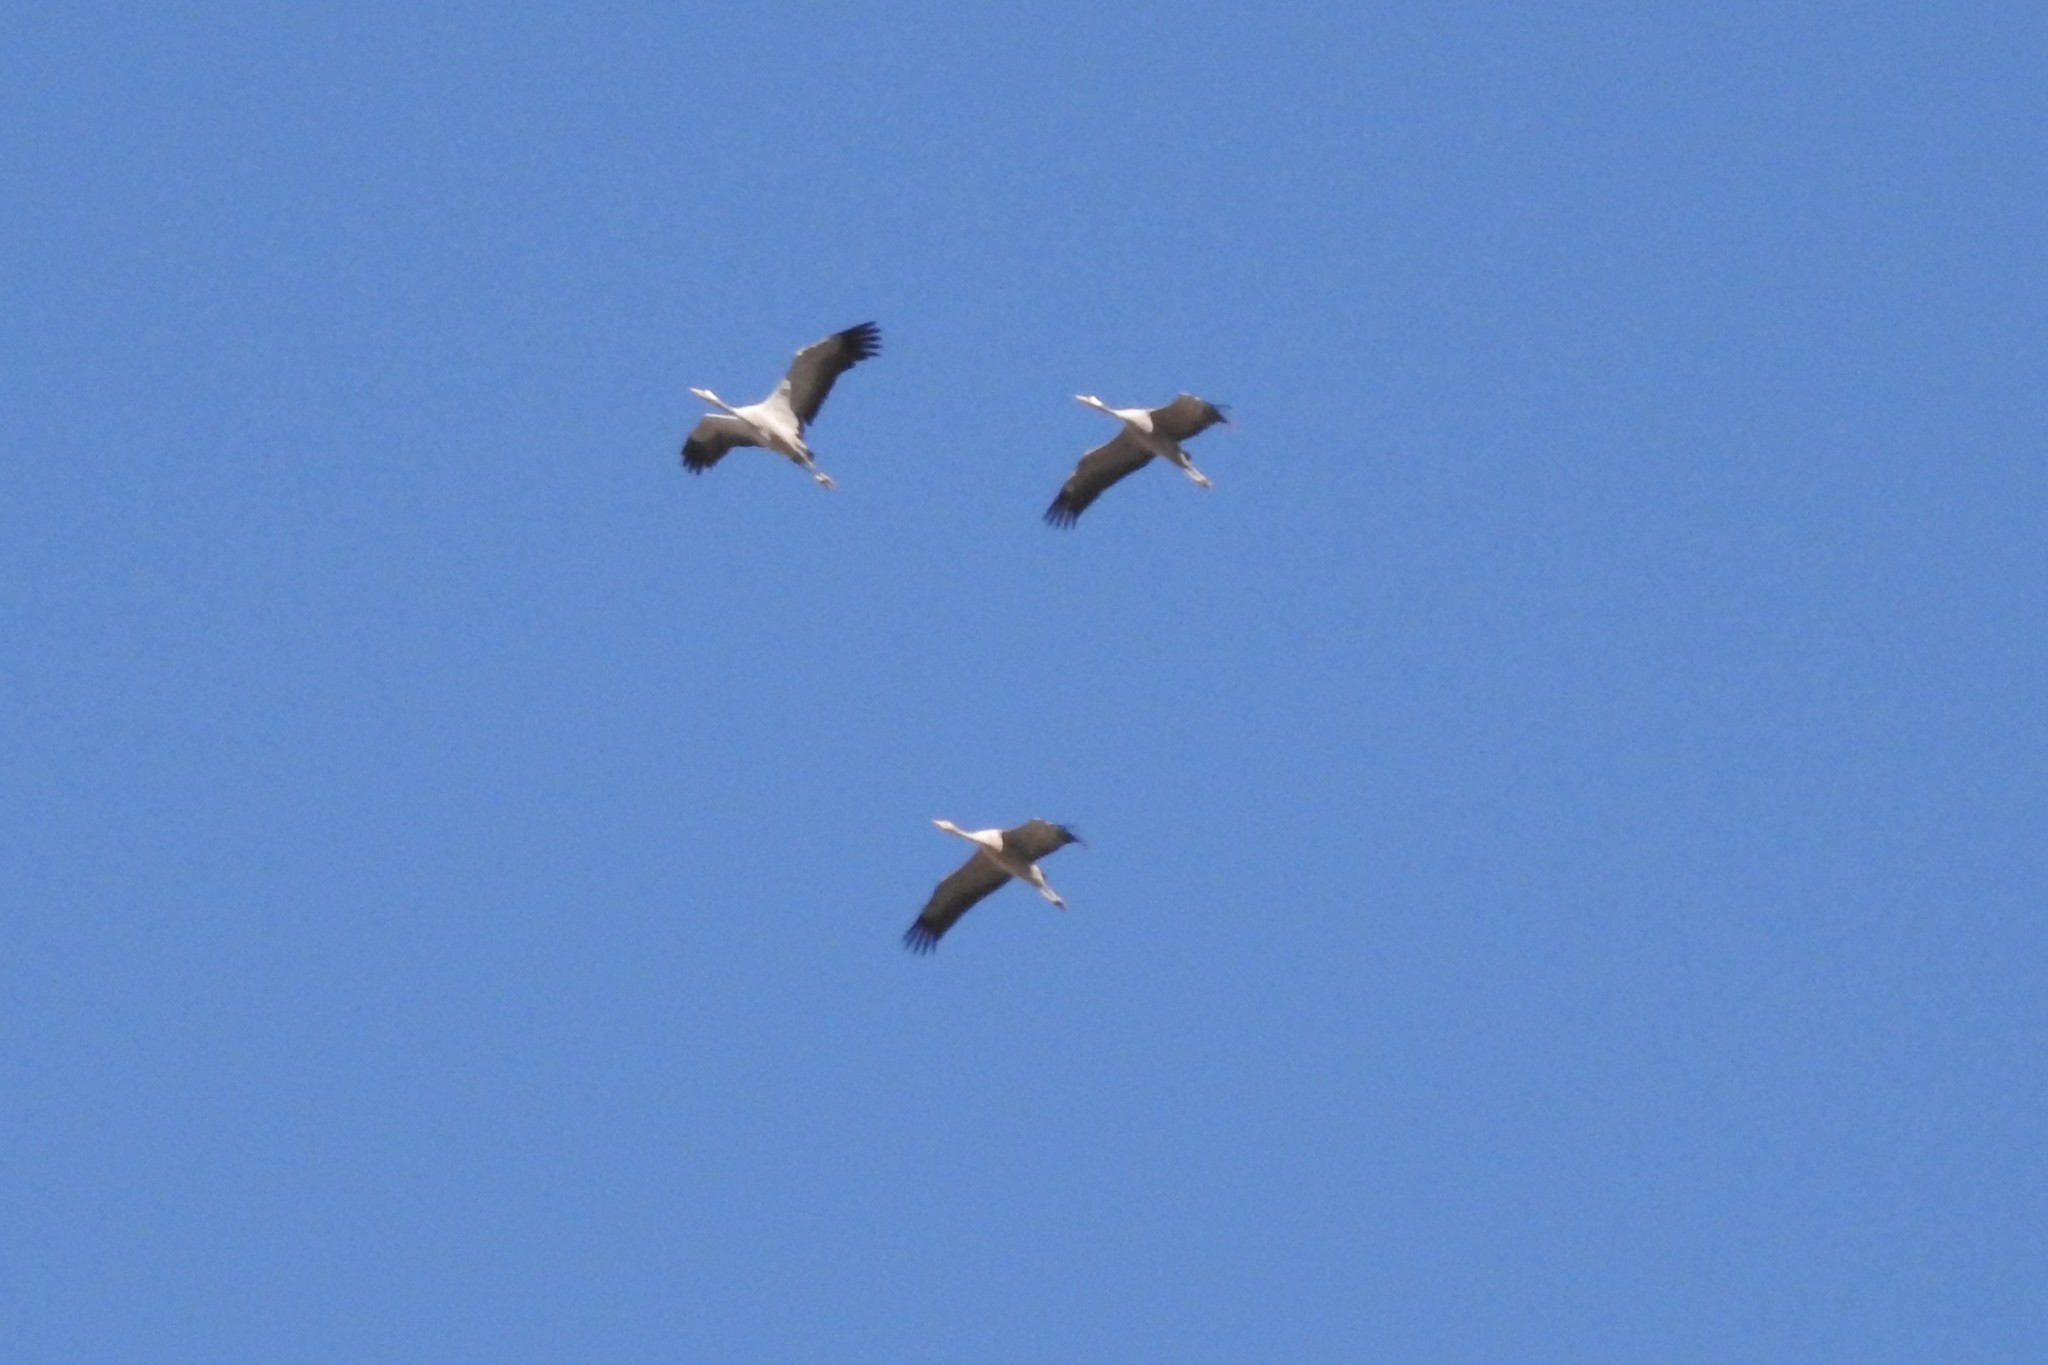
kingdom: Animalia
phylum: Chordata
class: Aves
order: Gruiformes
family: Gruidae
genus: Grus
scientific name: Grus grus
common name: Common crane
